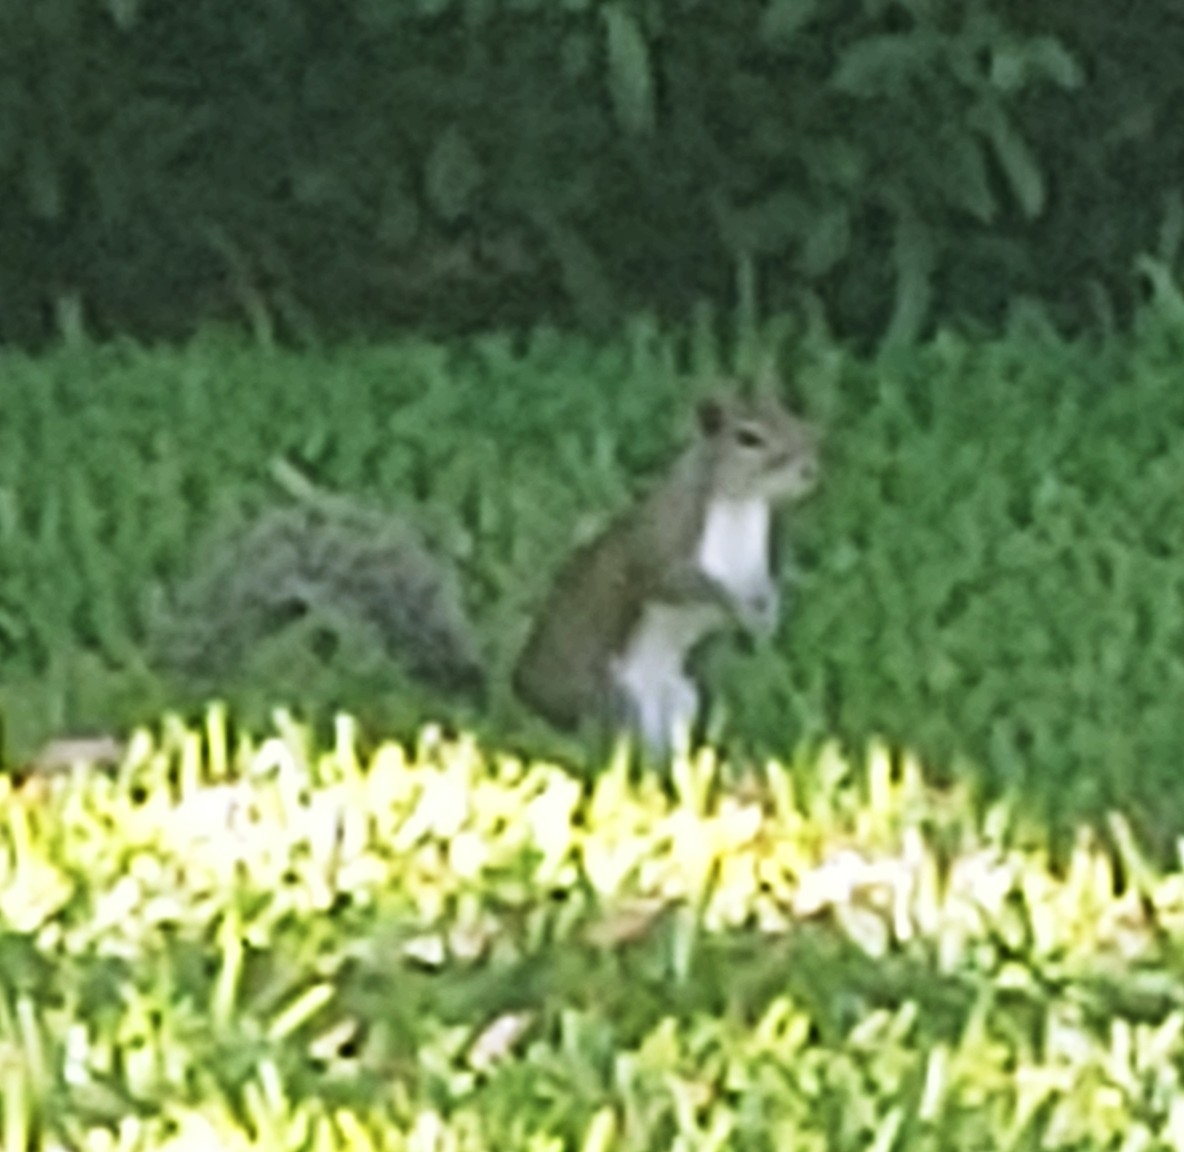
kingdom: Animalia
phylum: Chordata
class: Mammalia
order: Rodentia
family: Sciuridae
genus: Sciurus
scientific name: Sciurus carolinensis
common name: Eastern gray squirrel
